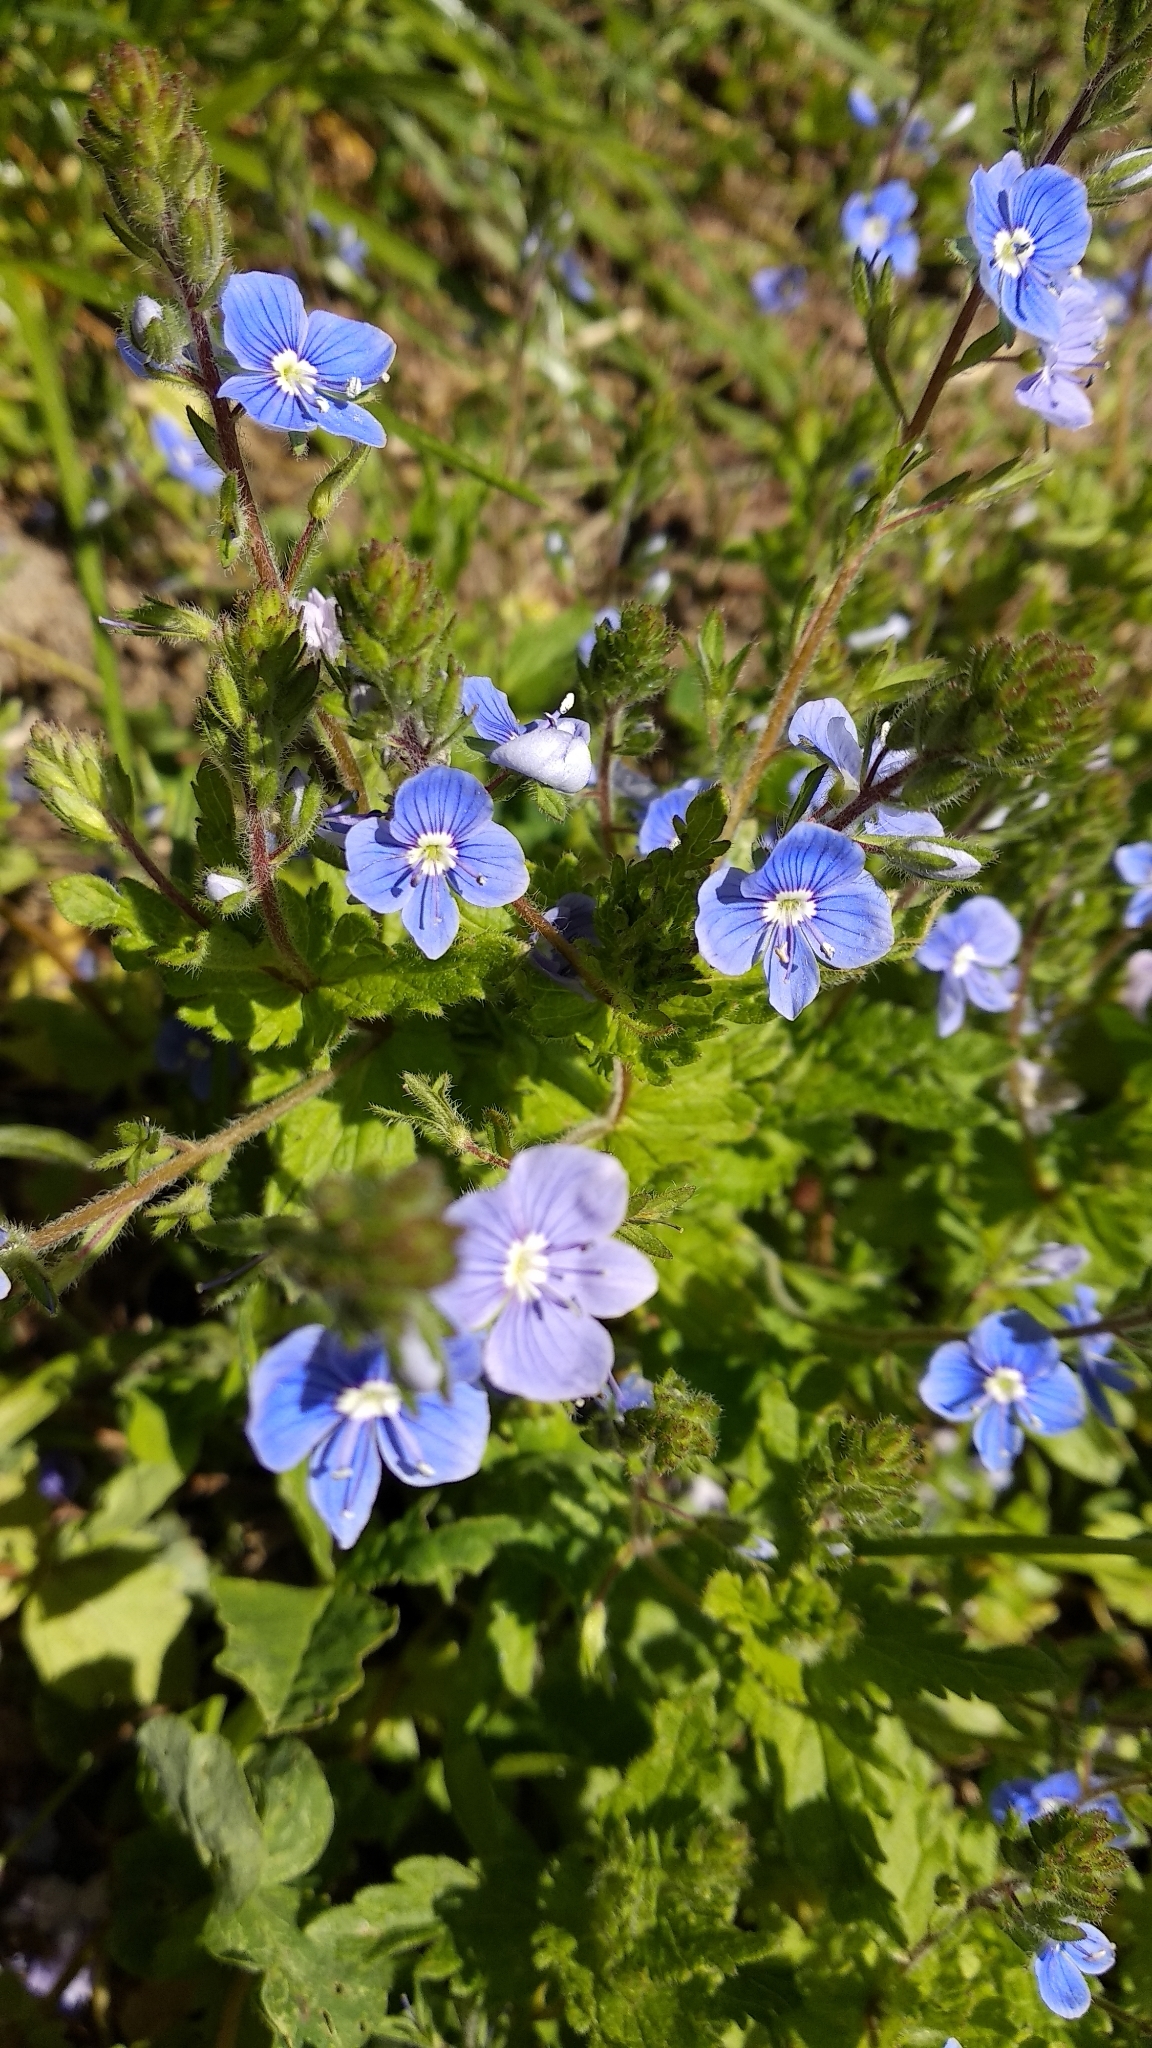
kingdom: Plantae
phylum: Tracheophyta
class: Magnoliopsida
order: Lamiales
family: Plantaginaceae
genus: Veronica
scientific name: Veronica chamaedrys
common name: Germander speedwell
